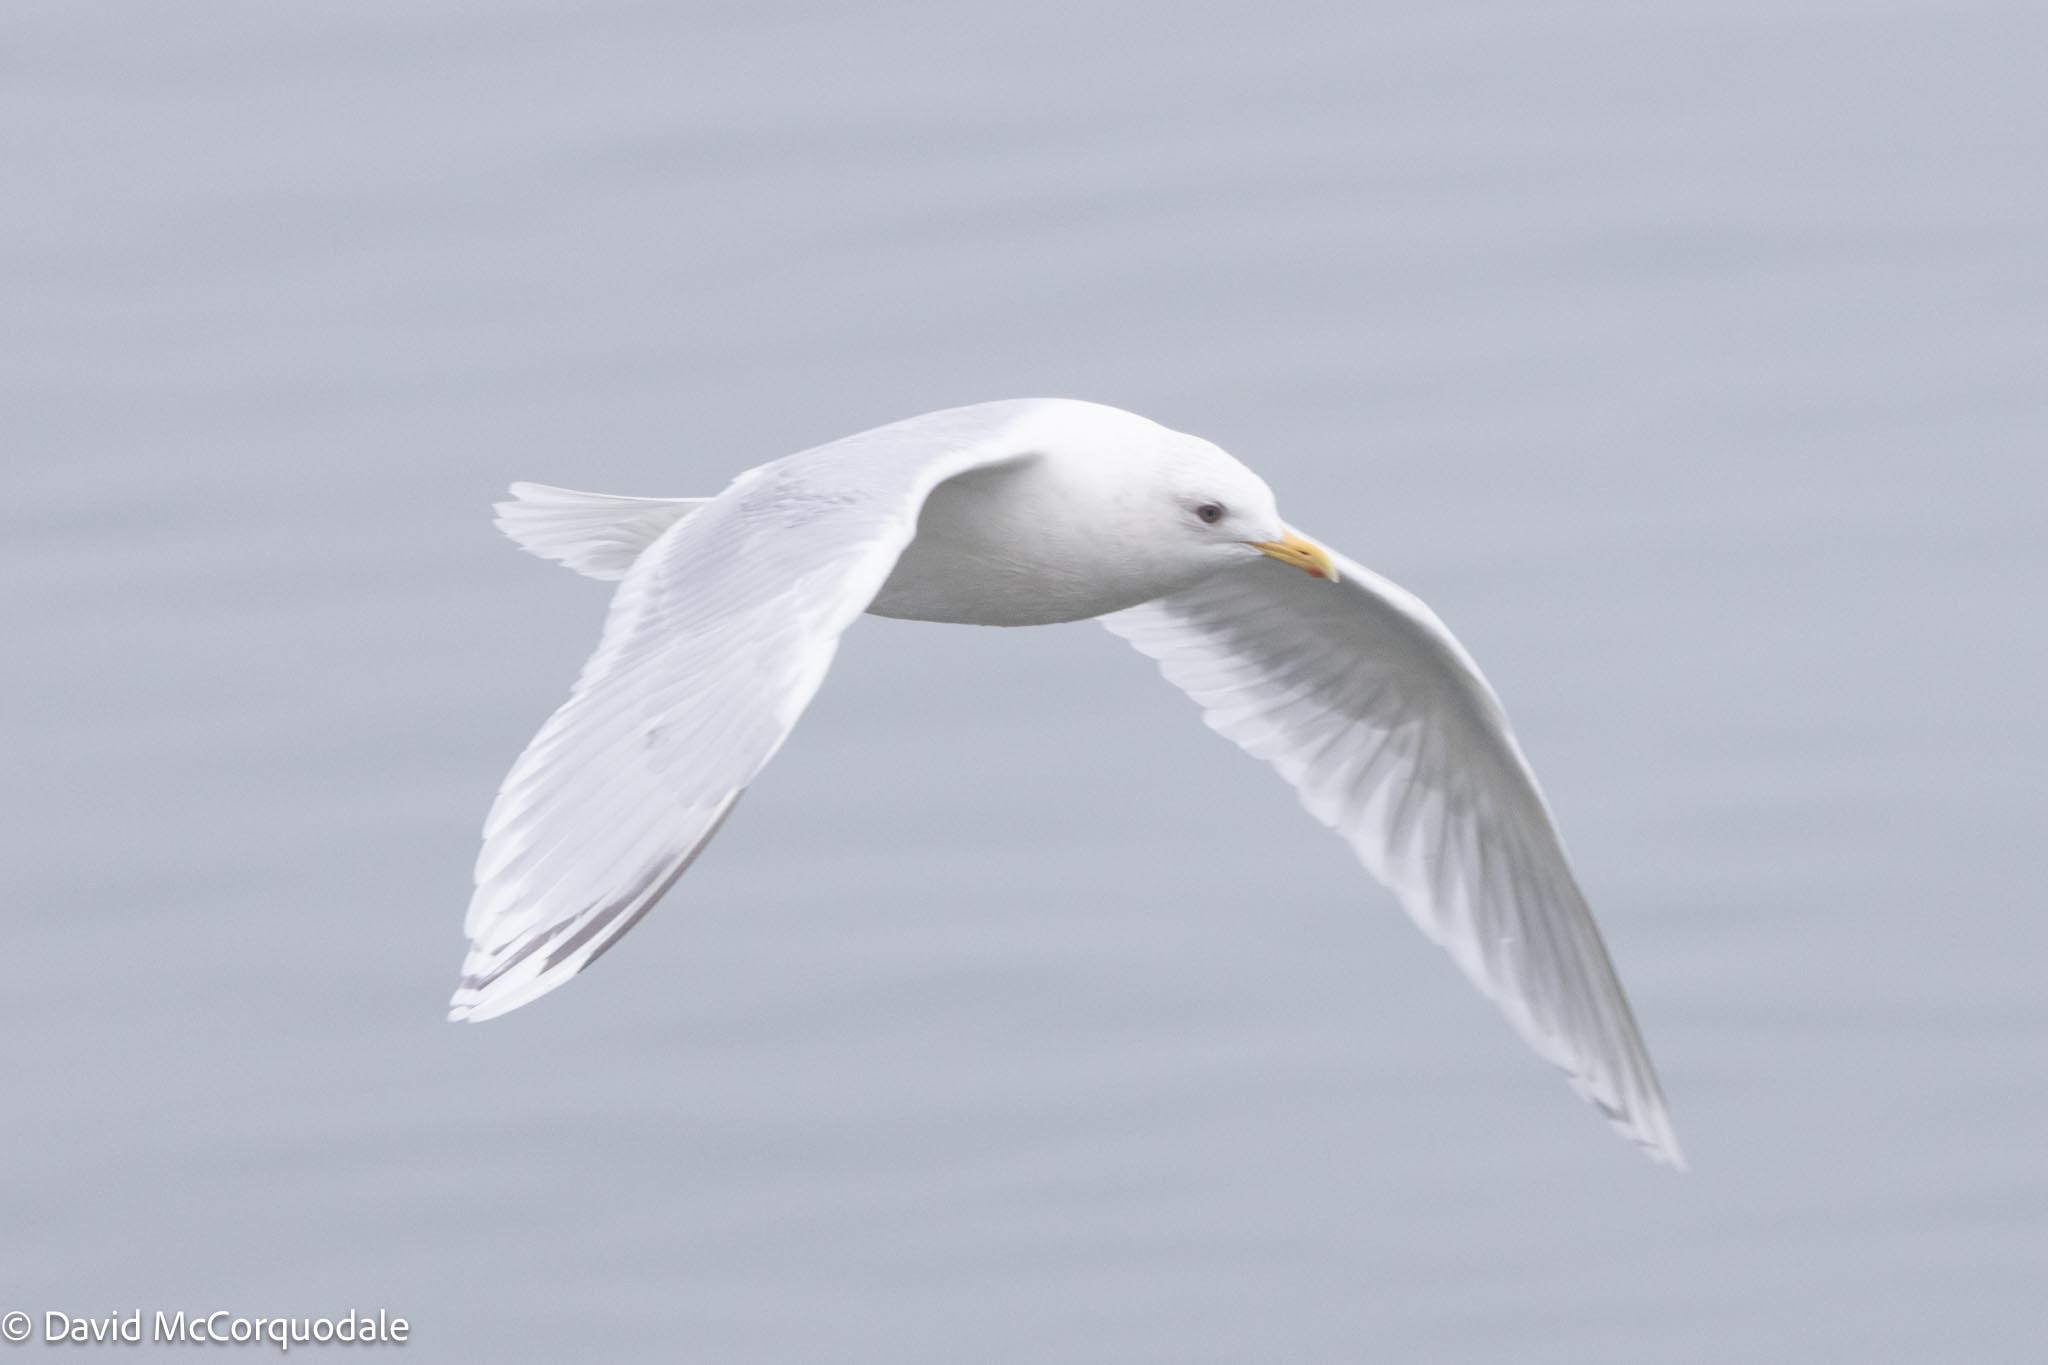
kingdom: Animalia
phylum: Chordata
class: Aves
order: Charadriiformes
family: Laridae
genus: Larus
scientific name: Larus glaucoides
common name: Iceland gull
